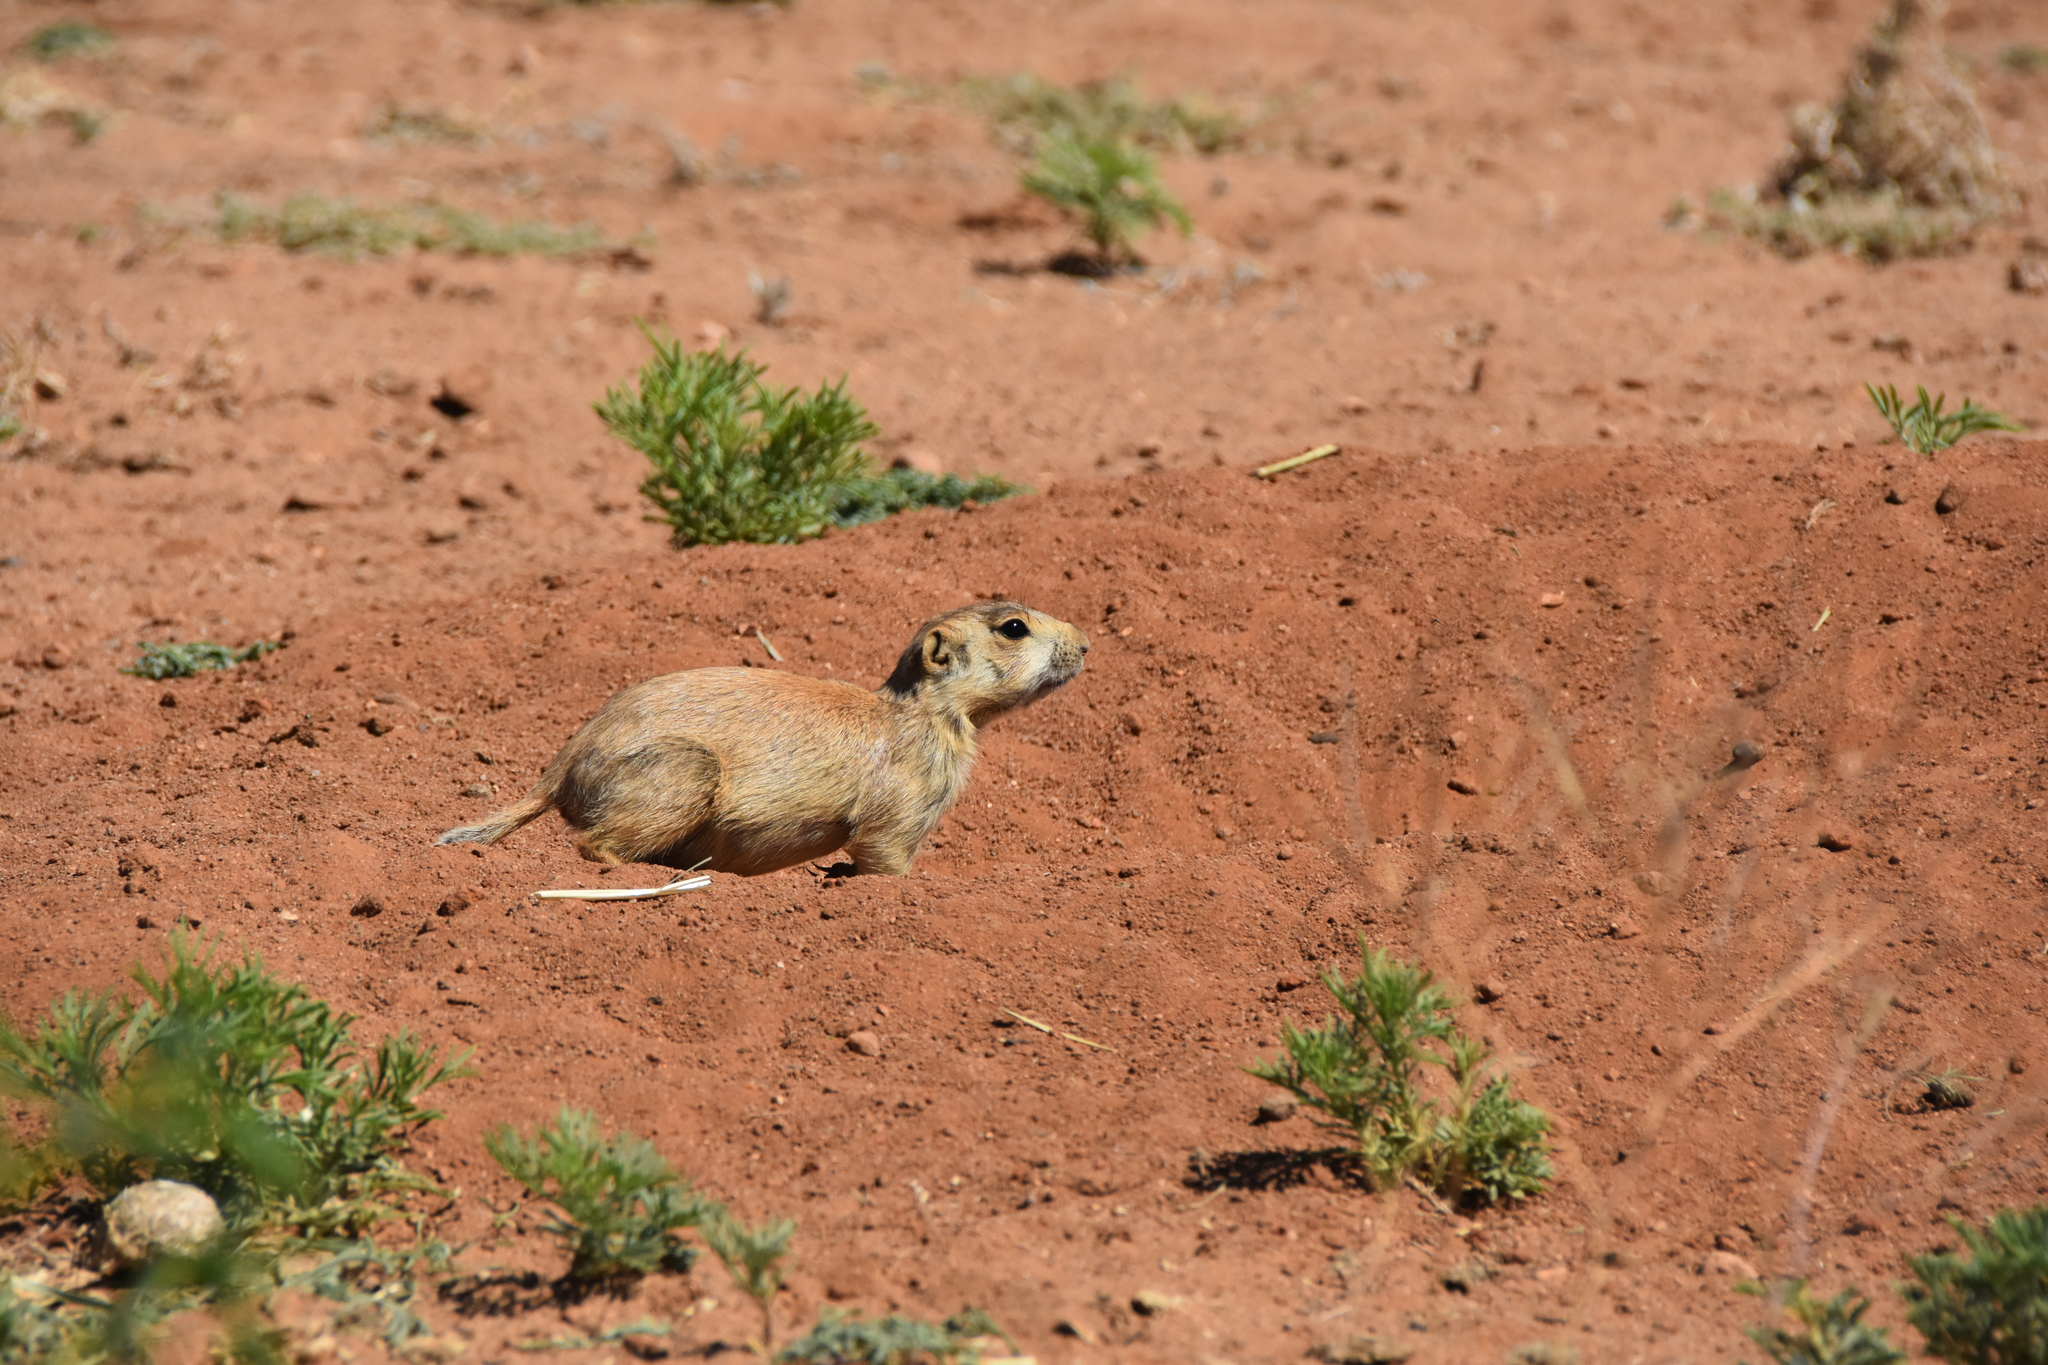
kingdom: Animalia
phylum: Chordata
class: Mammalia
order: Rodentia
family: Sciuridae
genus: Cynomys
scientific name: Cynomys gunnisoni
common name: Gunnison's prairie dog
